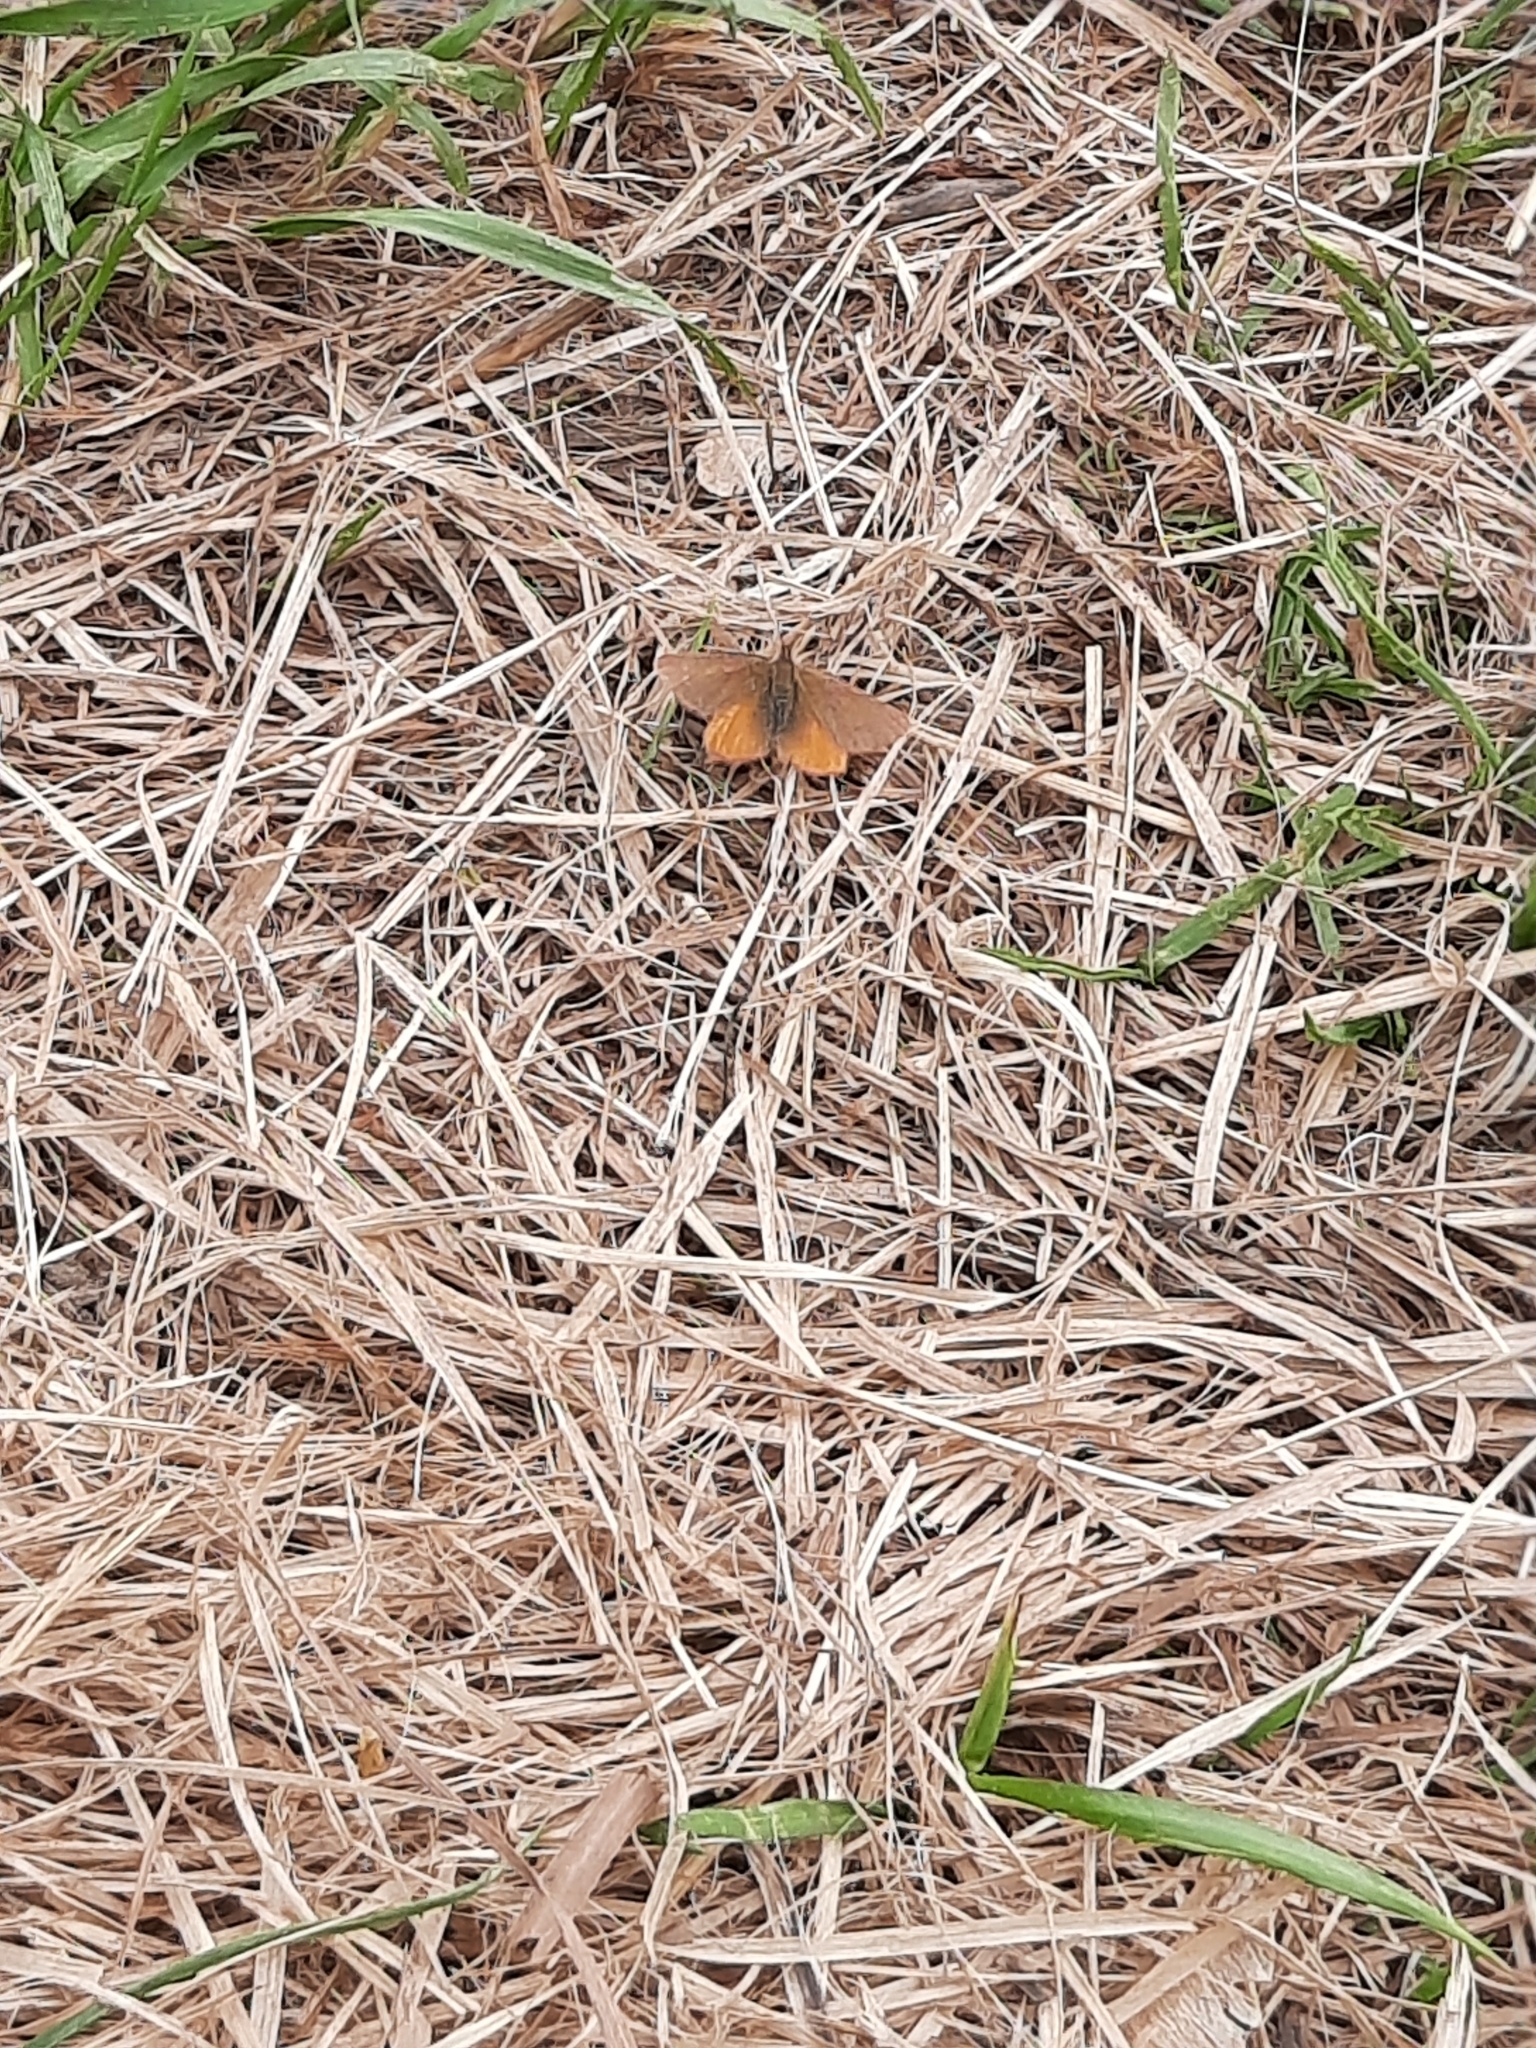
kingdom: Animalia
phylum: Arthropoda
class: Insecta
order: Lepidoptera
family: Geometridae
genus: Lythria
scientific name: Lythria purpuraria
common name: Purple-barred yellow
